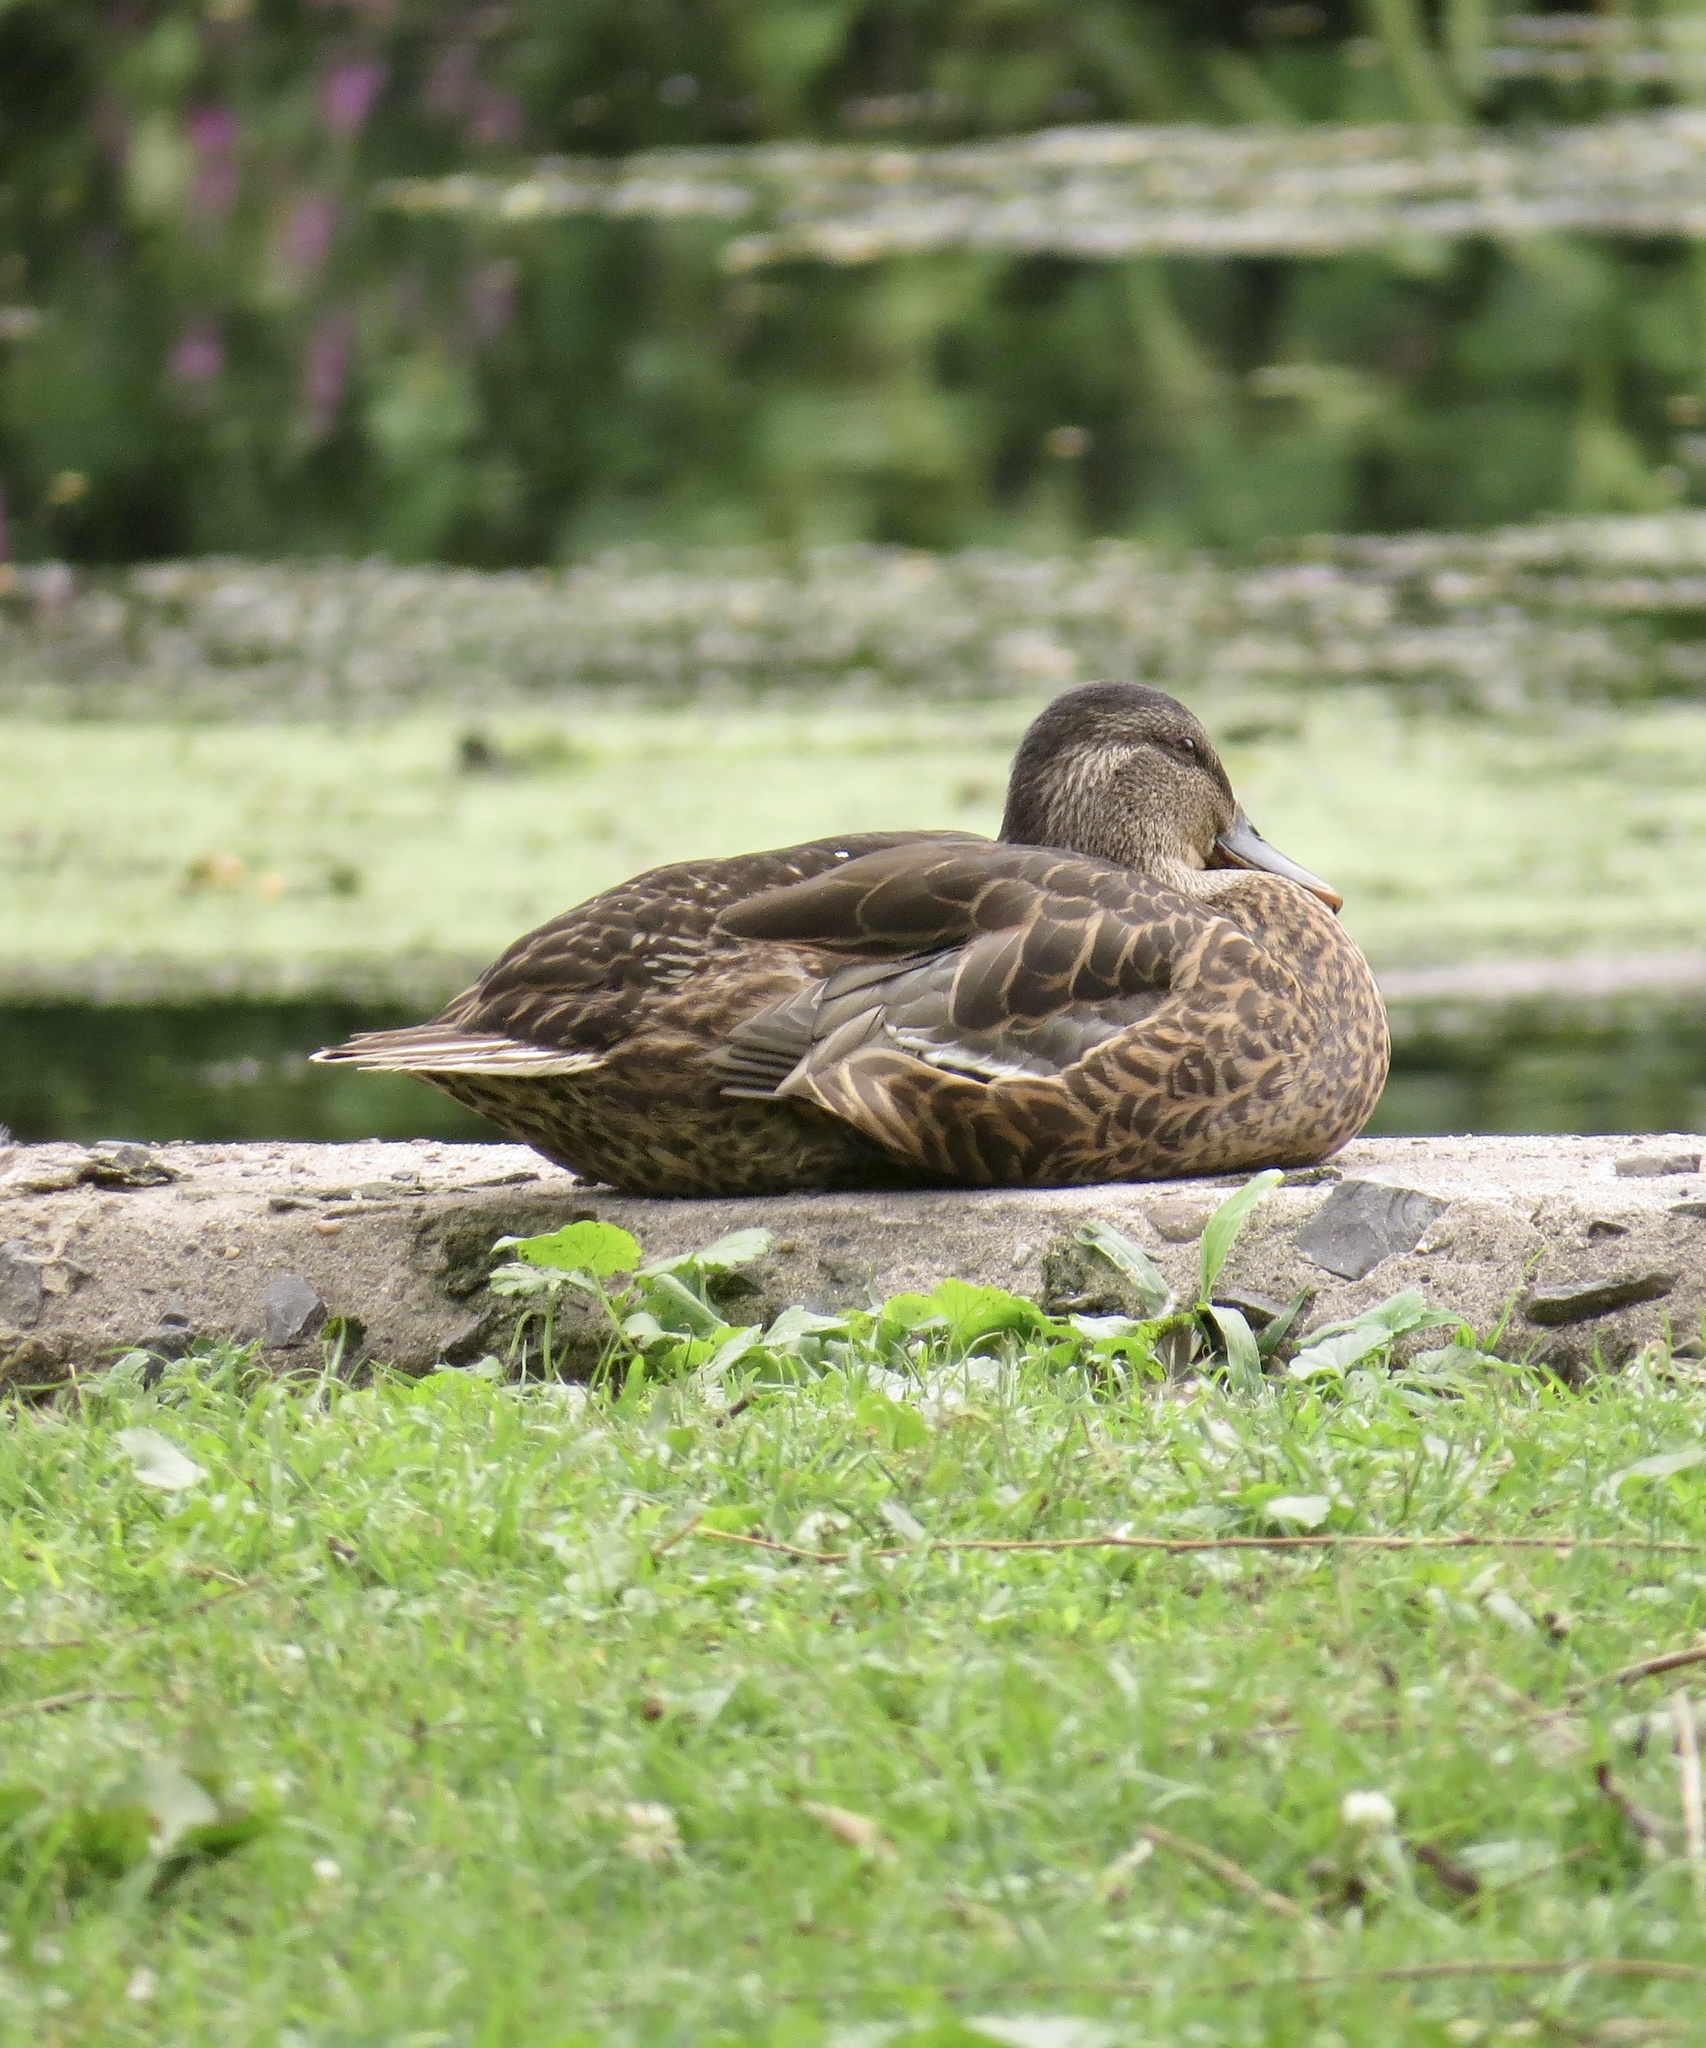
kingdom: Animalia
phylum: Chordata
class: Aves
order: Anseriformes
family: Anatidae
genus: Anas
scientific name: Anas platyrhynchos
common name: Mallard
